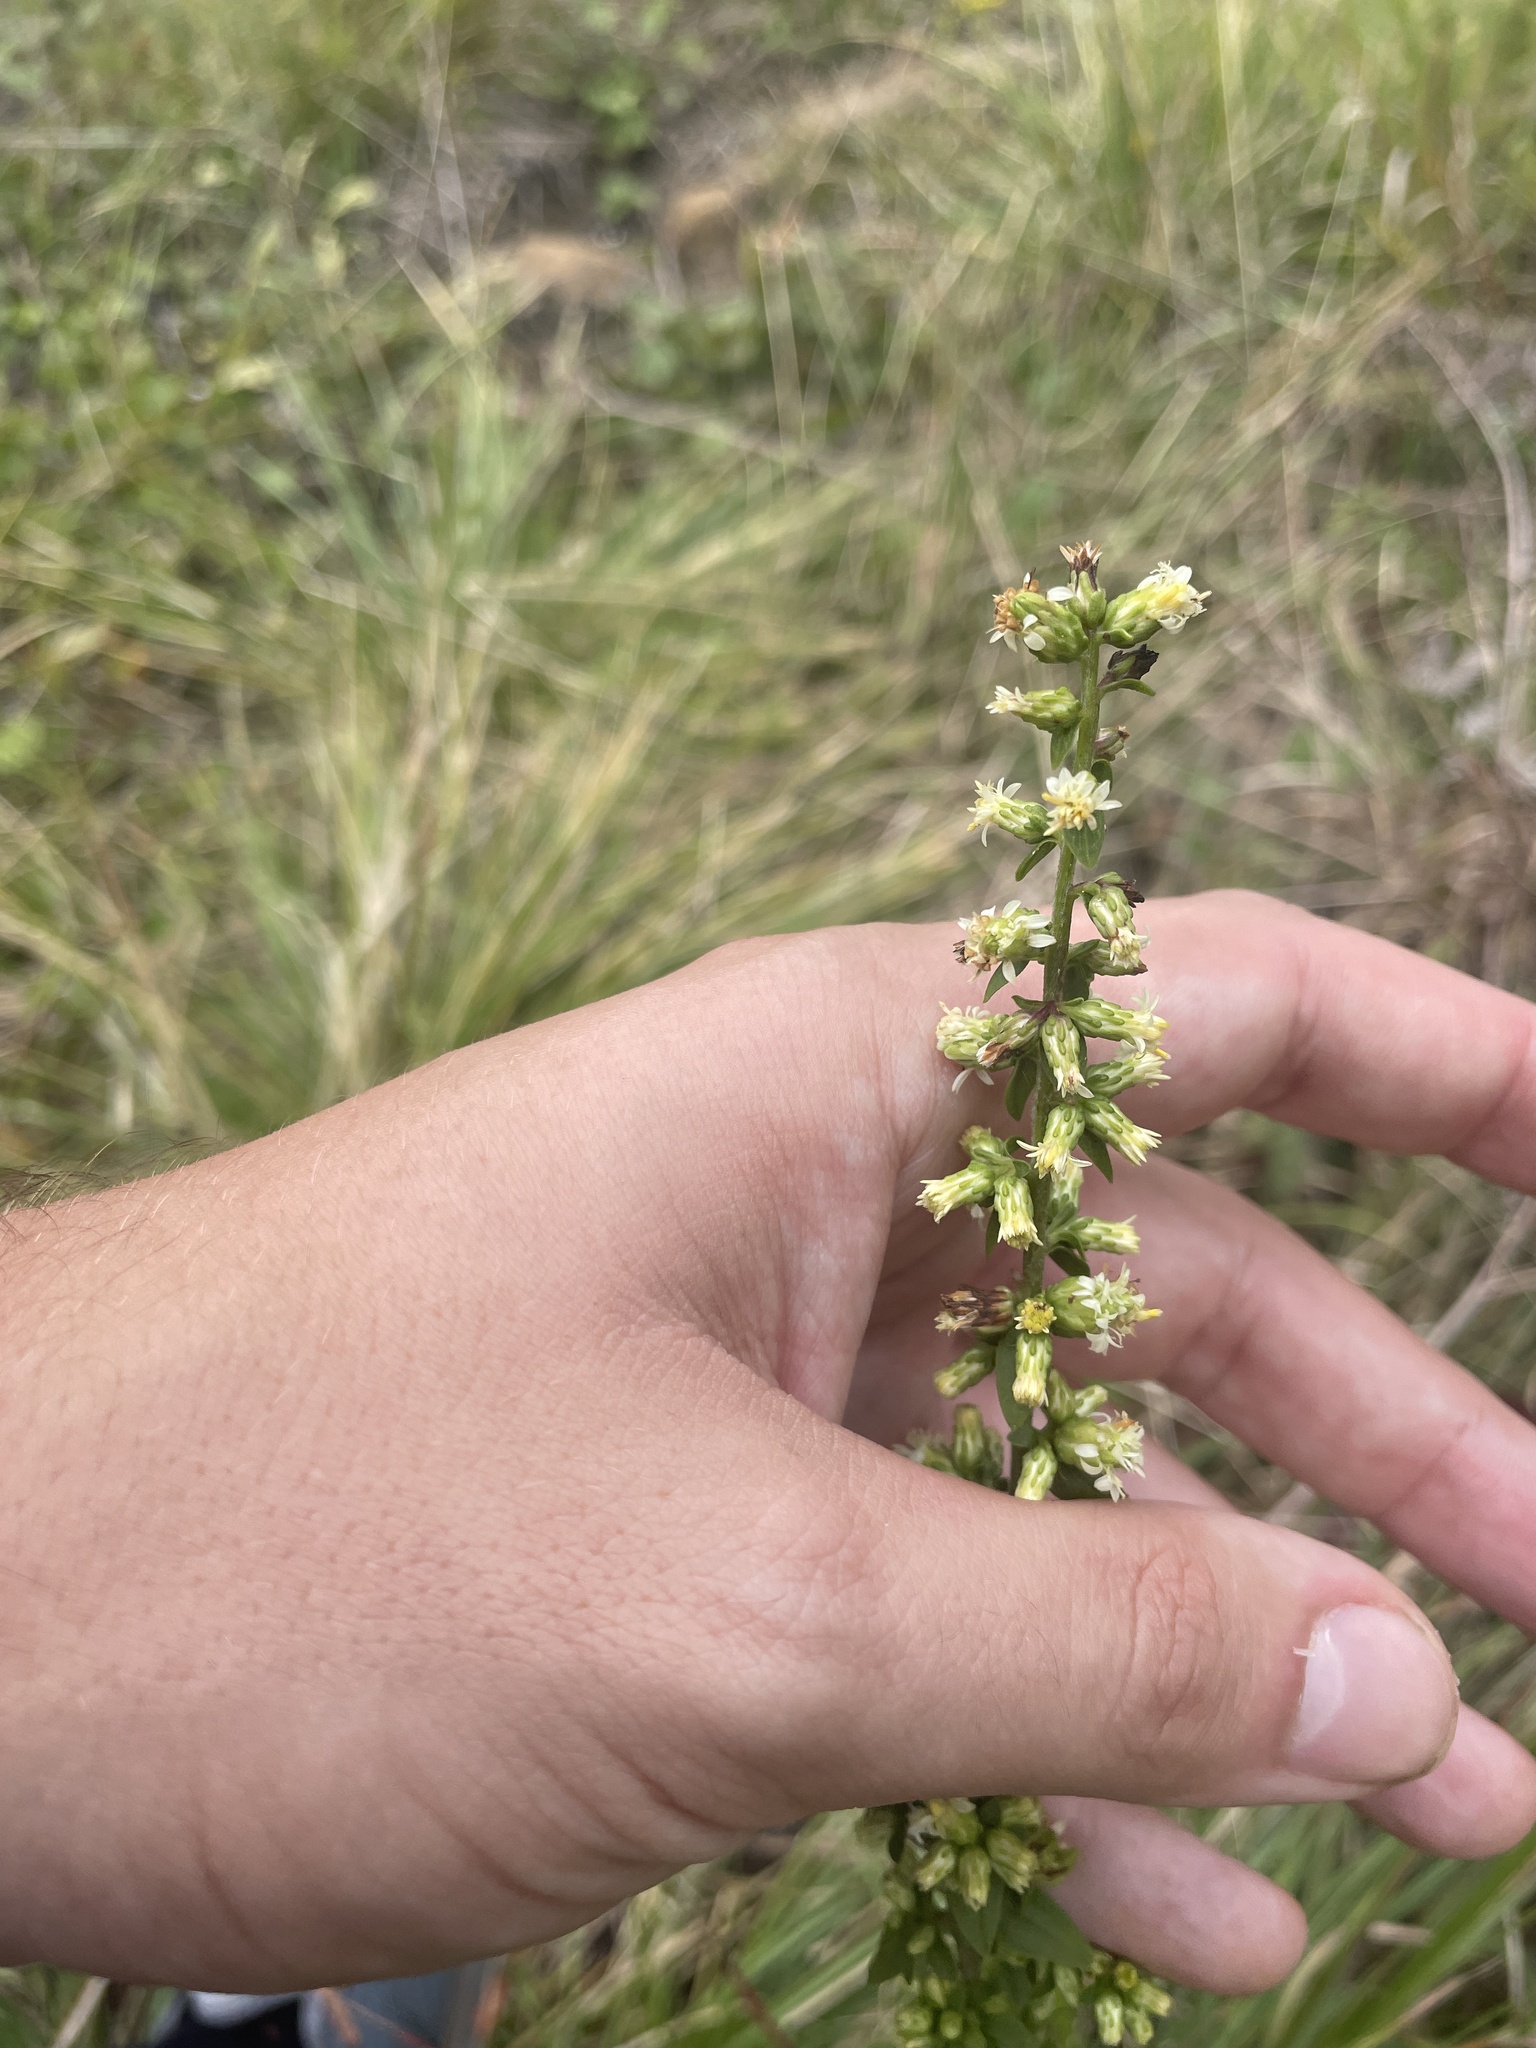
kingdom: Plantae
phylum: Tracheophyta
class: Magnoliopsida
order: Asterales
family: Asteraceae
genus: Solidago
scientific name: Solidago bicolor
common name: Silverrod
